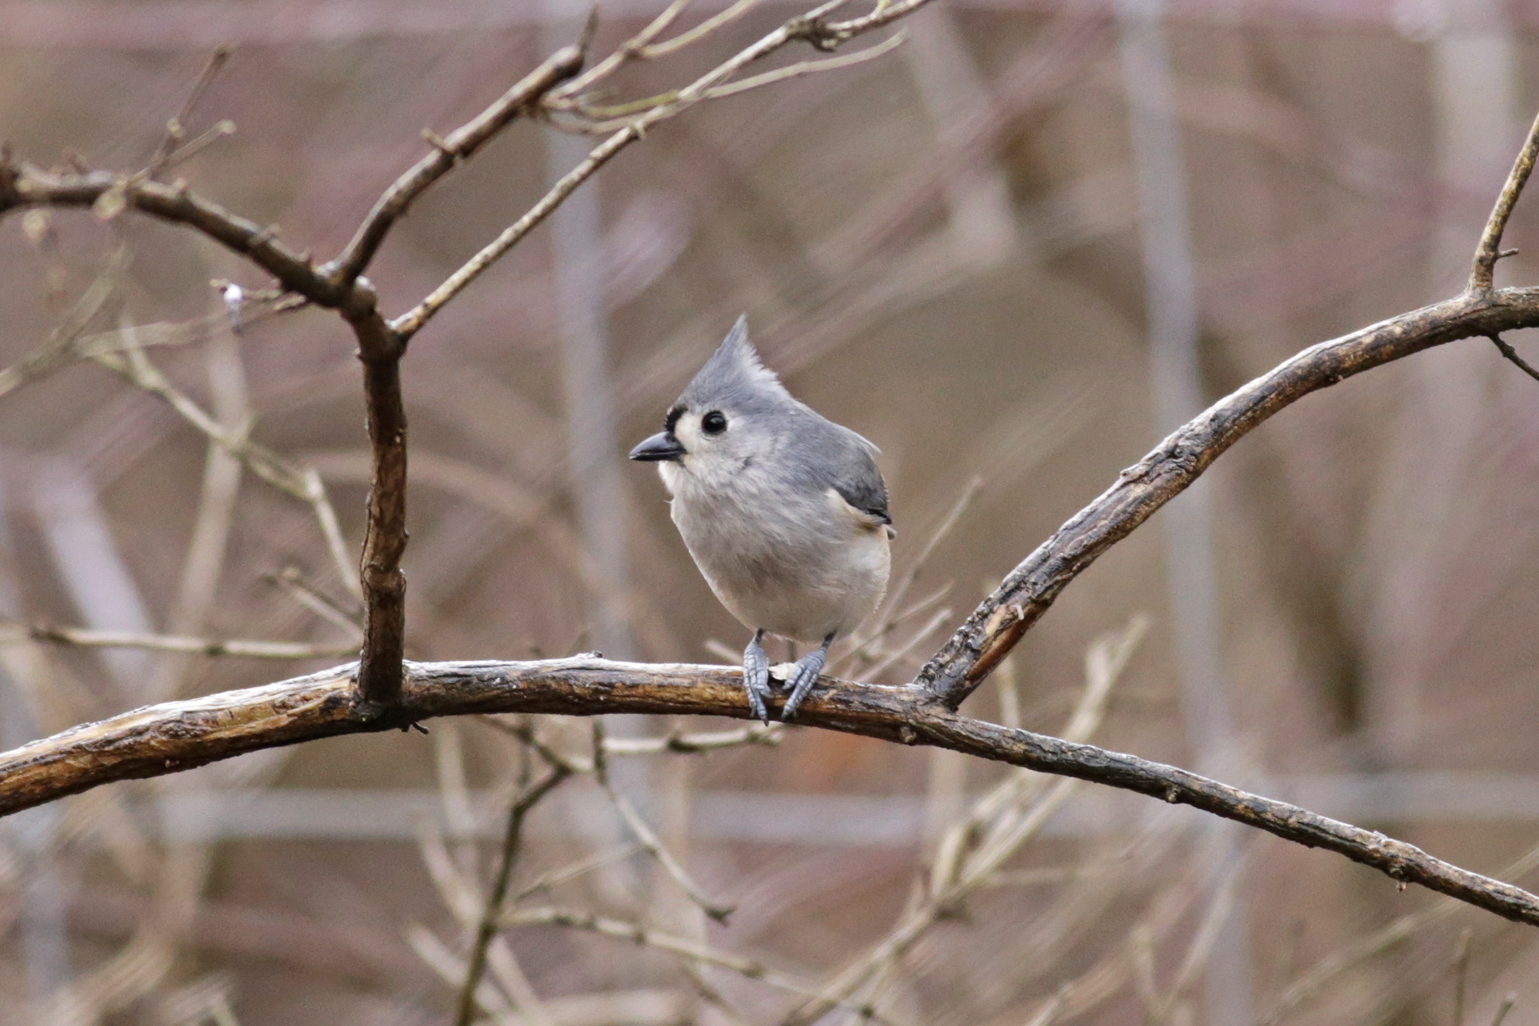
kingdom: Animalia
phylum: Chordata
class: Aves
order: Passeriformes
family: Paridae
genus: Baeolophus
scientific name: Baeolophus bicolor
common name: Tufted titmouse
